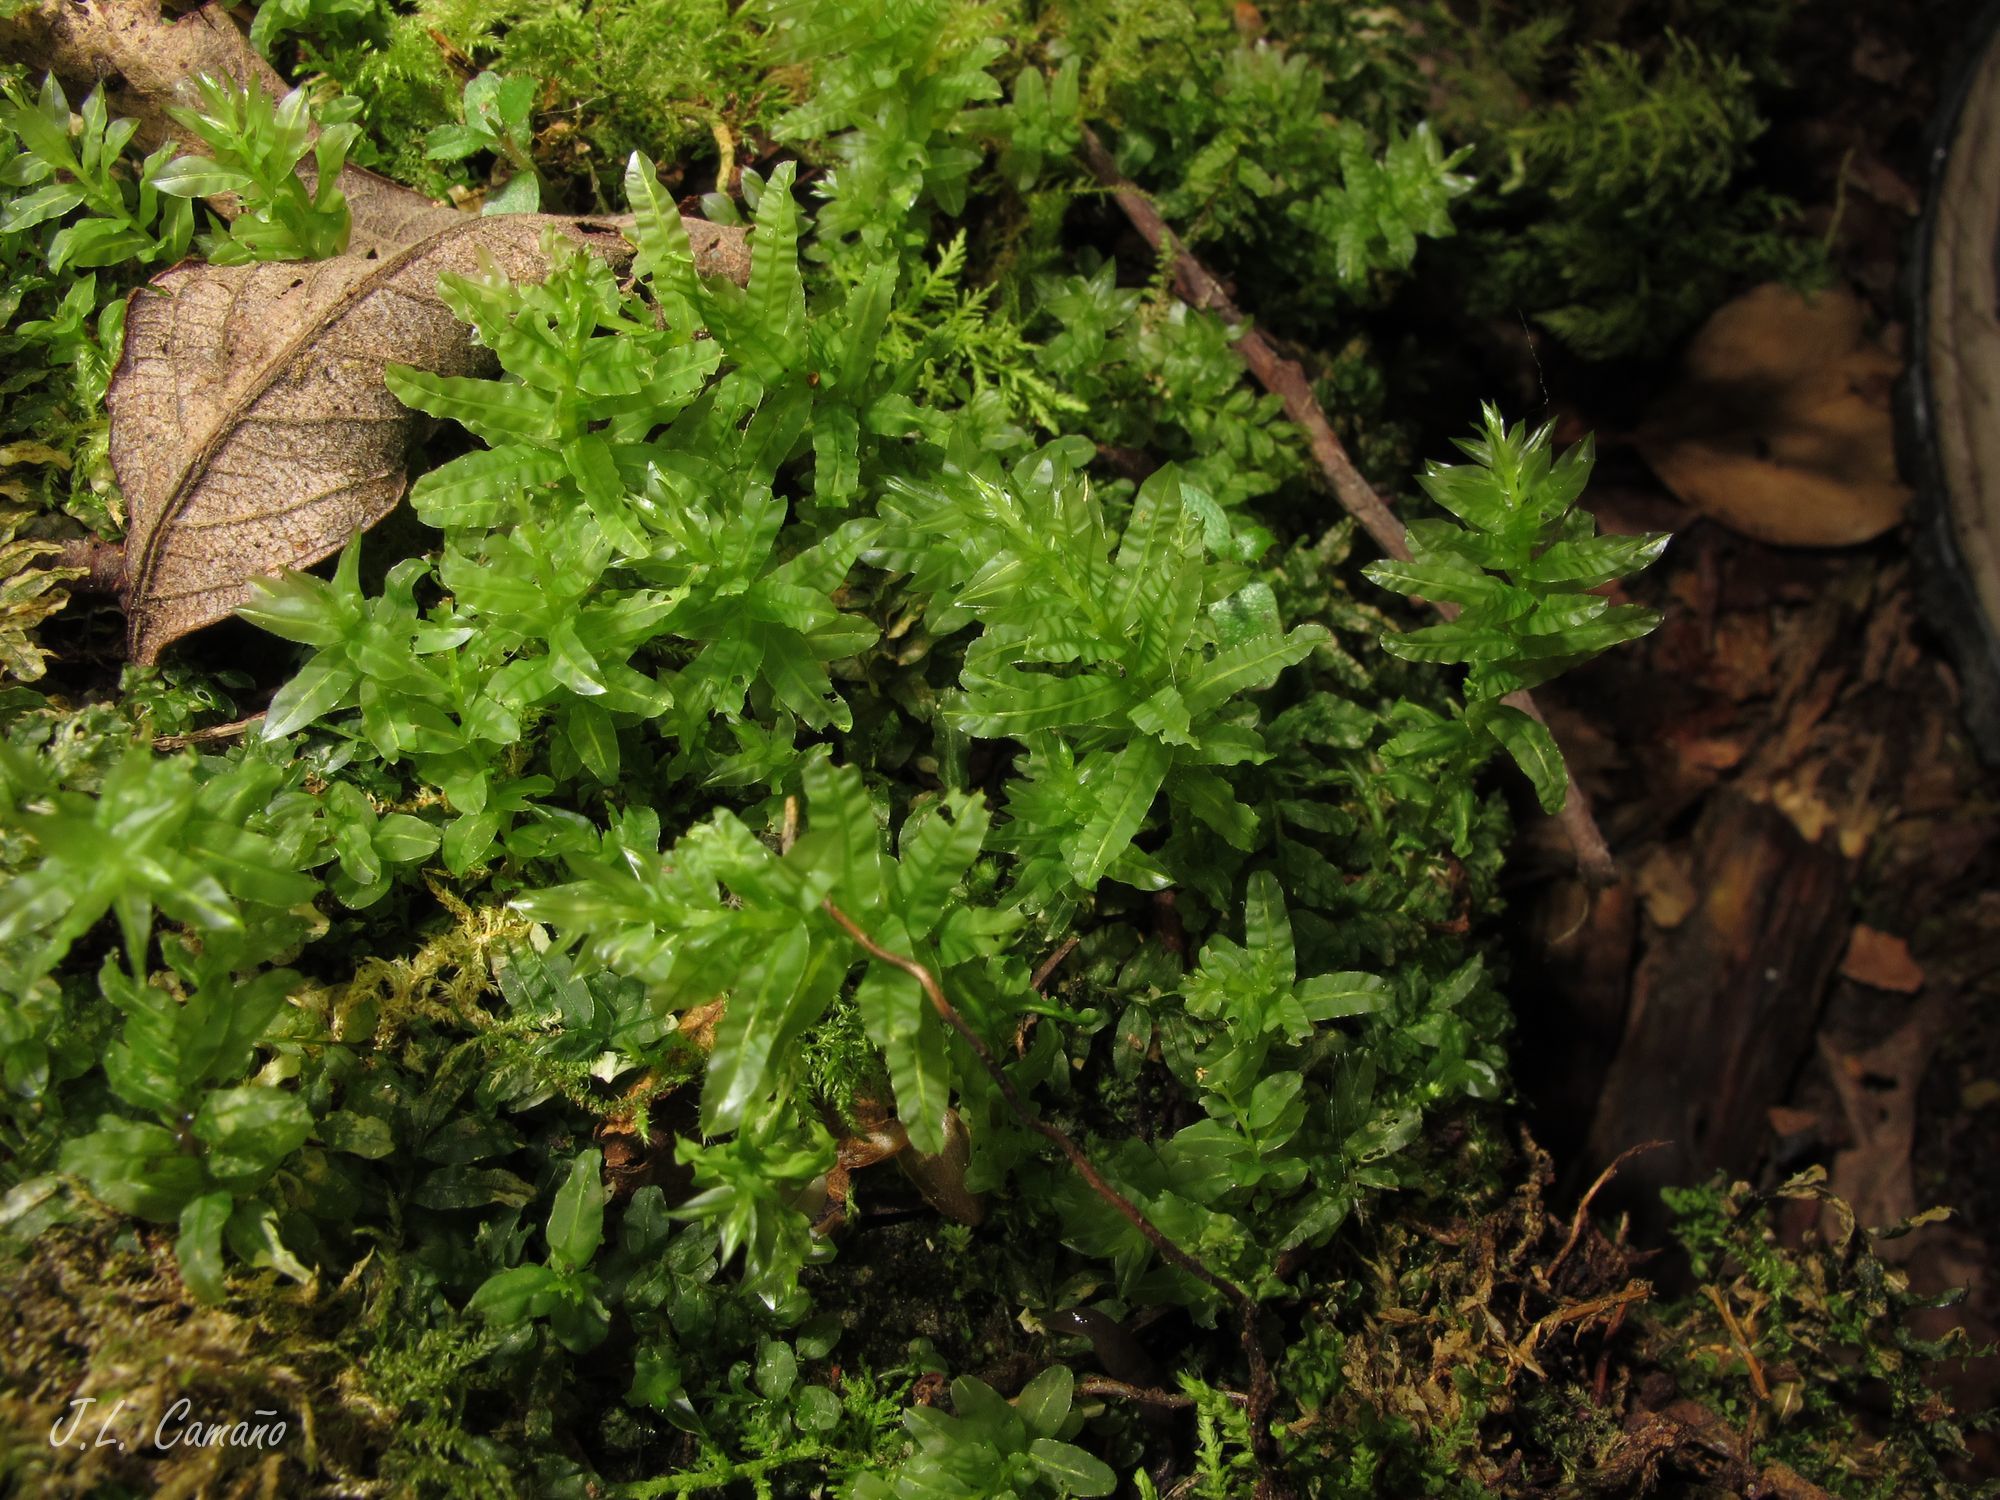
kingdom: Plantae
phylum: Bryophyta
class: Bryopsida
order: Bryales
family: Mniaceae
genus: Plagiomnium
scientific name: Plagiomnium undulatum
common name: Hart's-tongue thyme-moss
